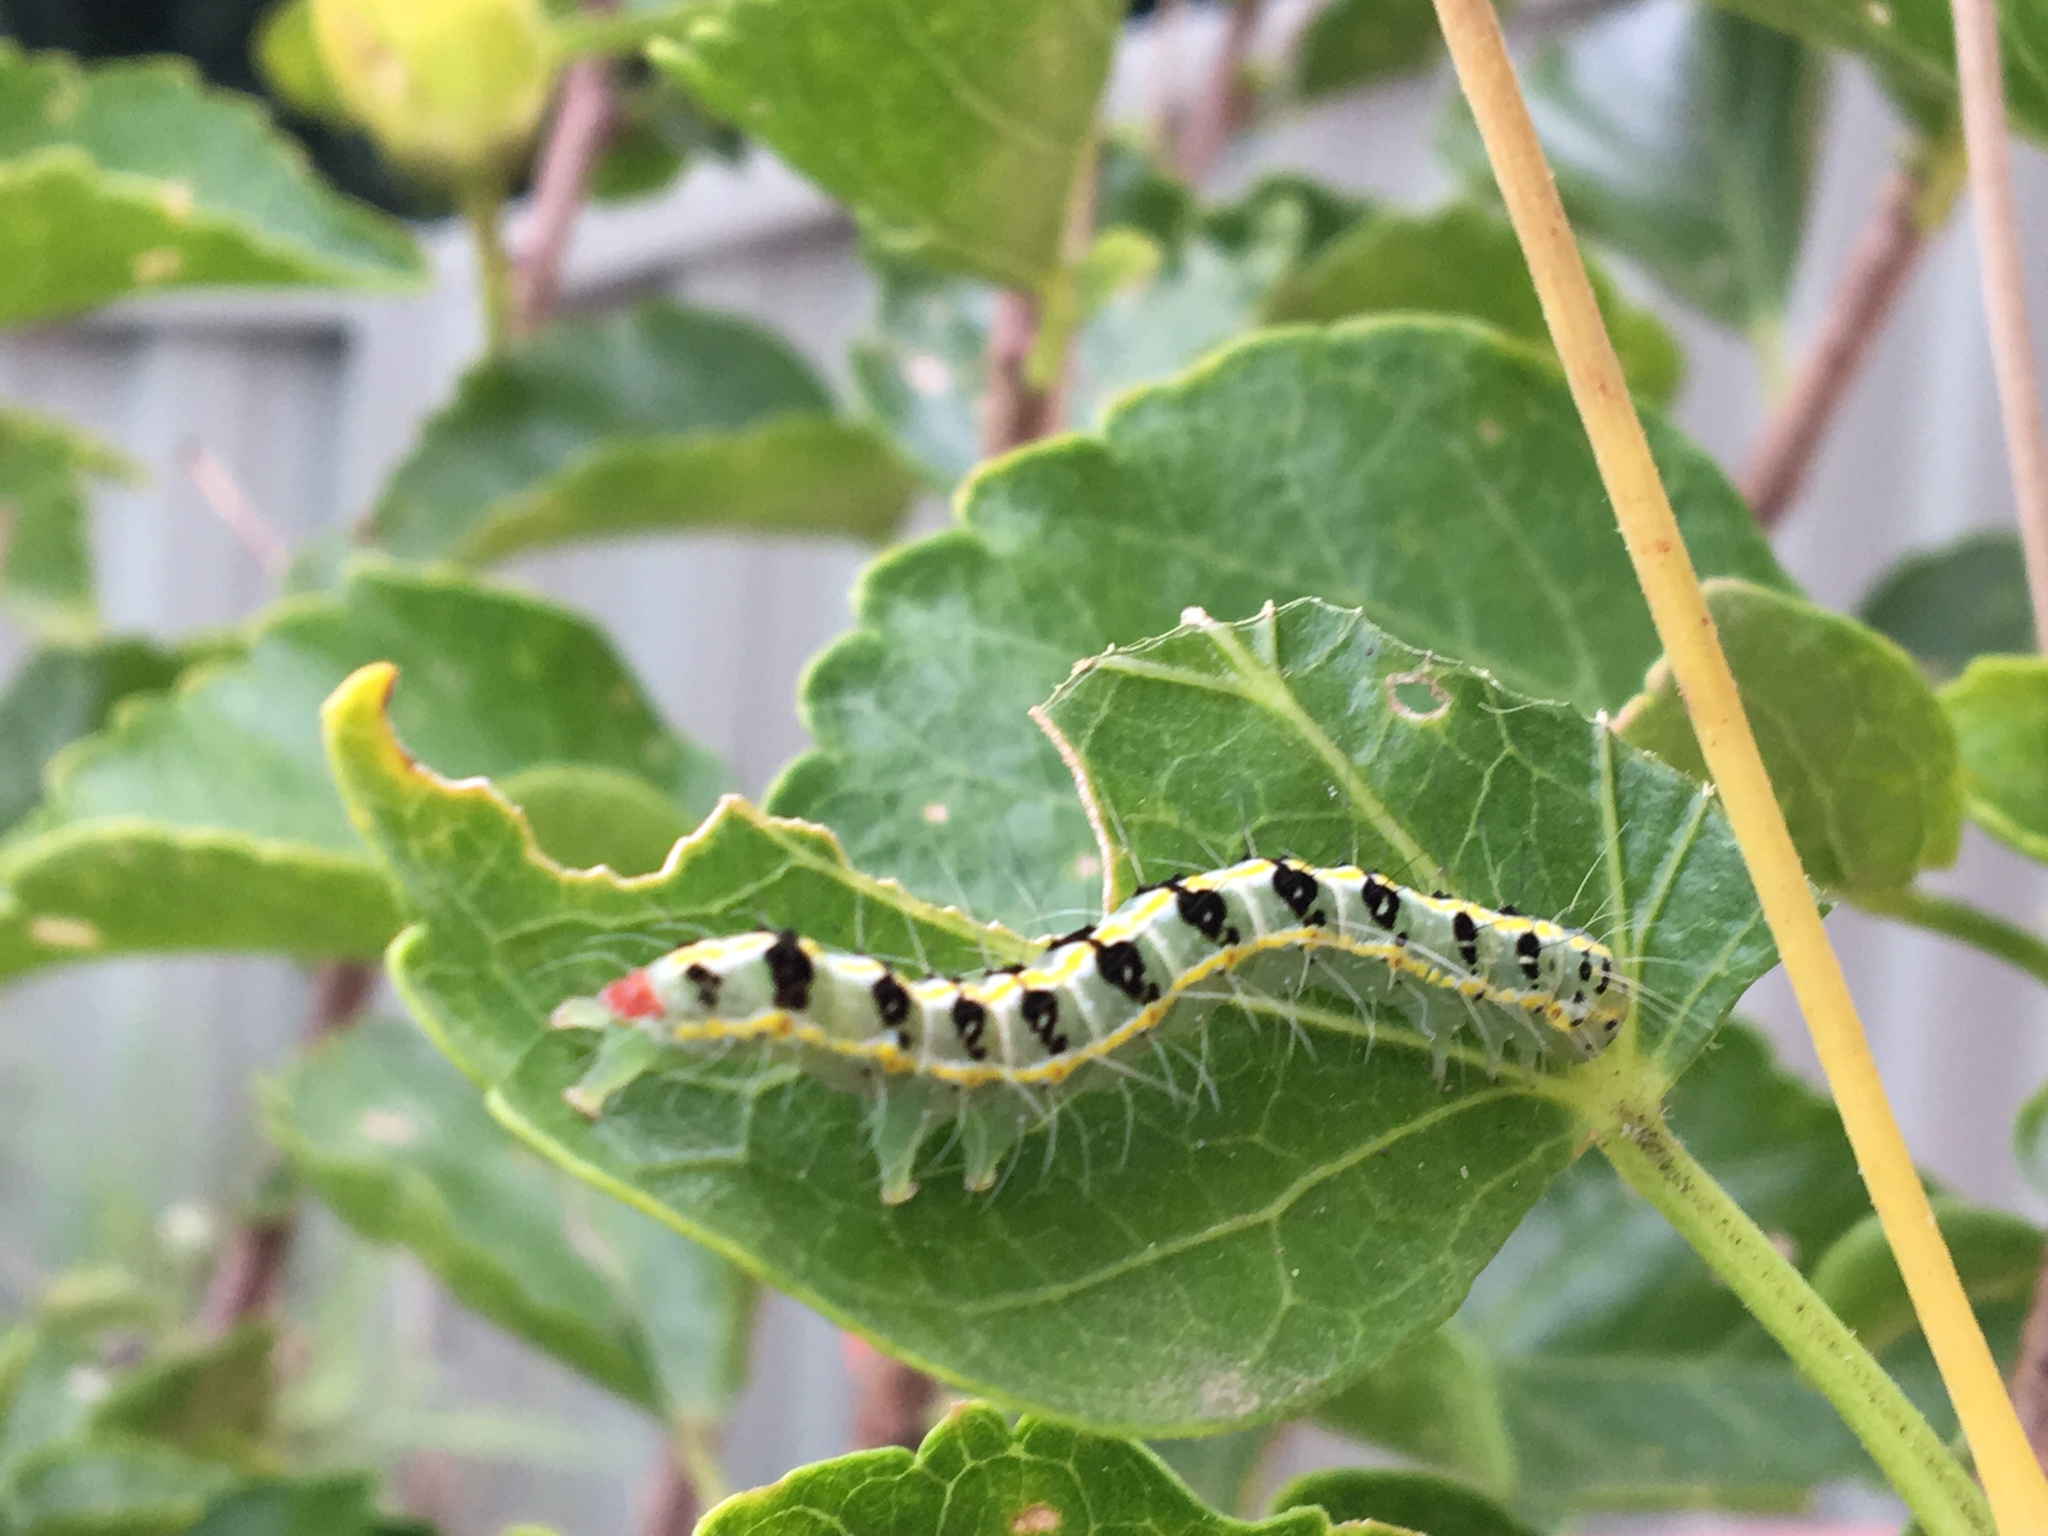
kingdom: Animalia
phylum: Arthropoda
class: Insecta
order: Lepidoptera
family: Nolidae
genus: Xanthodes
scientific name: Xanthodes transversa
